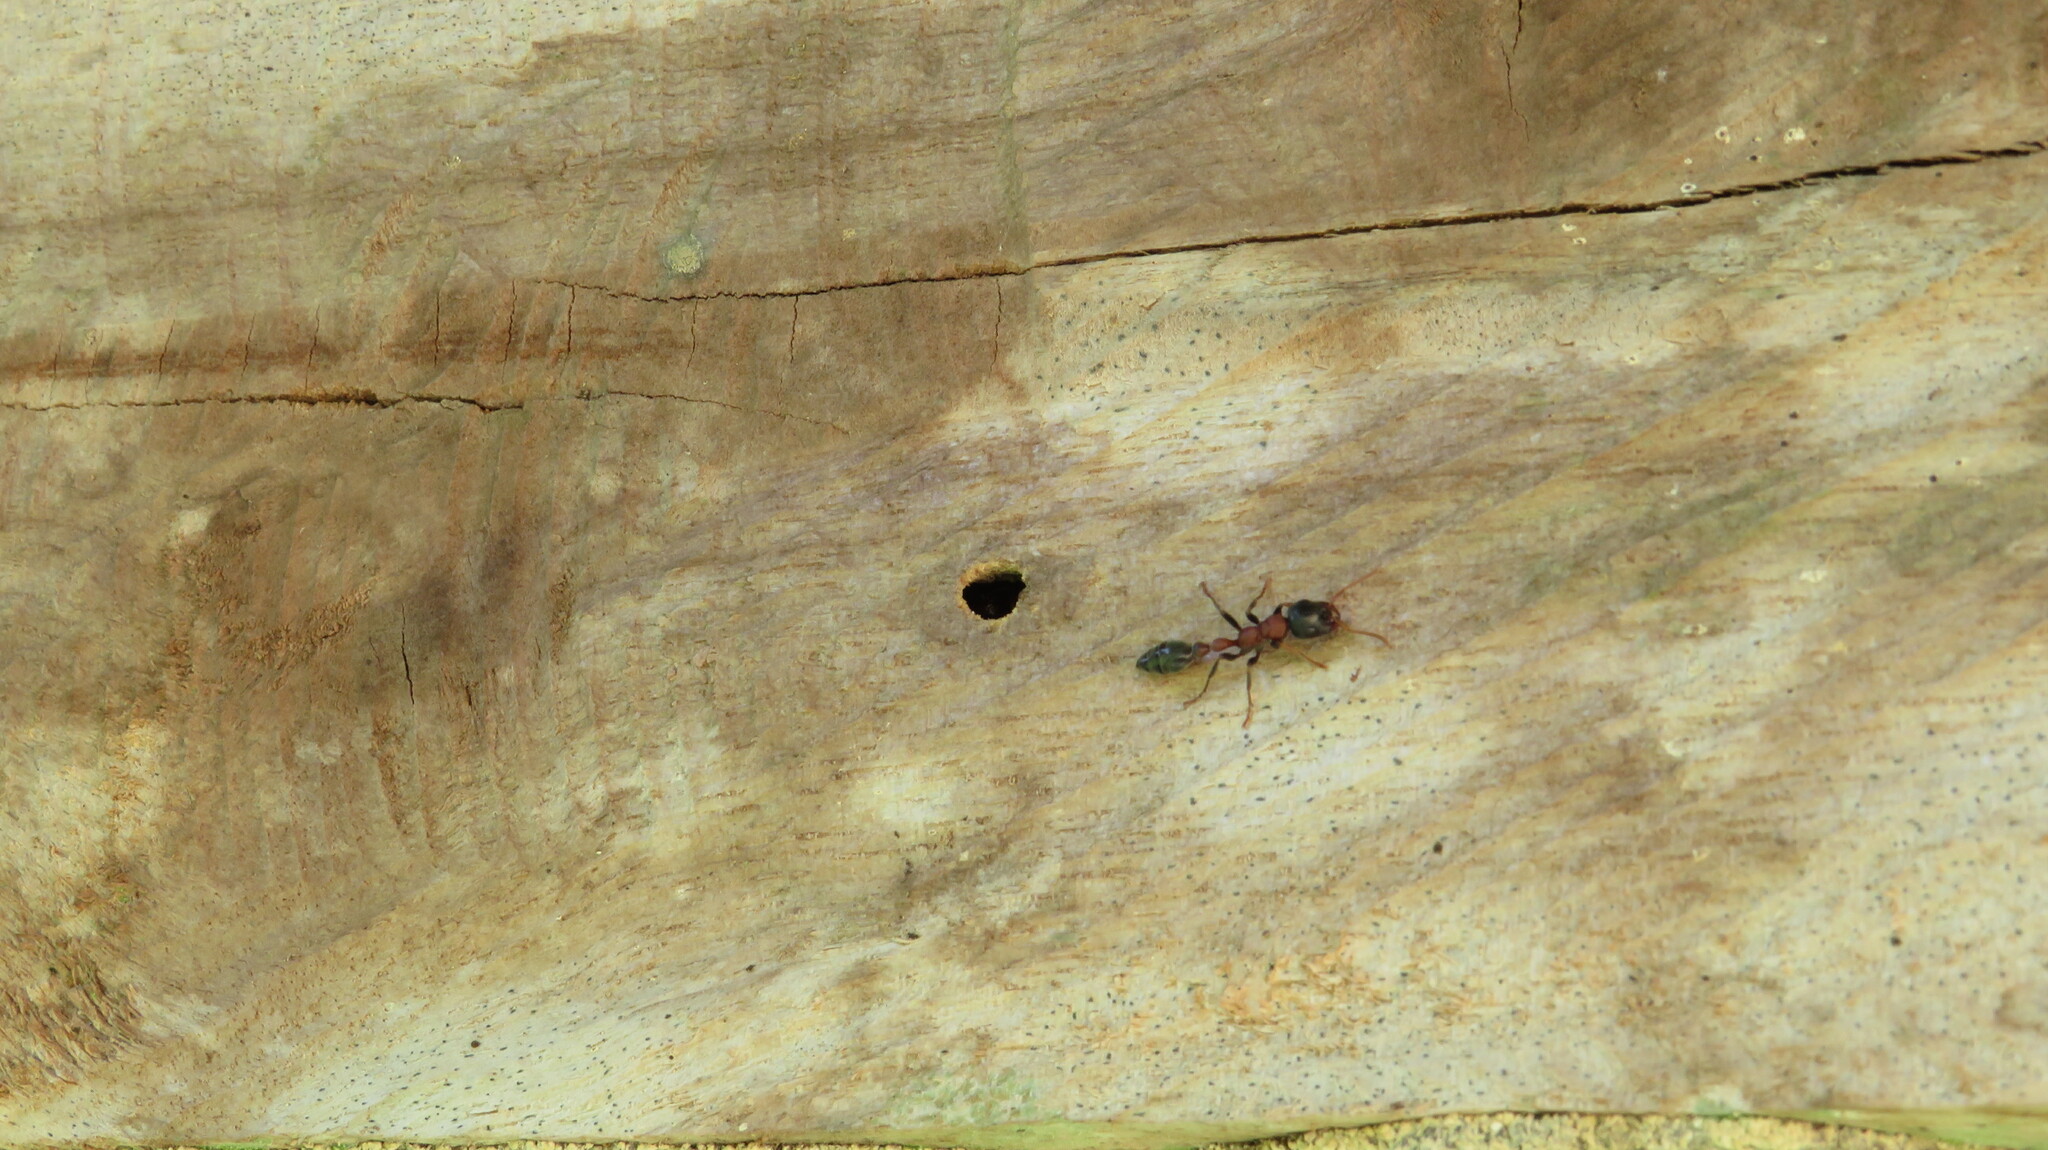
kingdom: Animalia
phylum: Arthropoda
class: Insecta
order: Hymenoptera
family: Formicidae
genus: Tetraponera
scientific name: Tetraponera rufonigra
